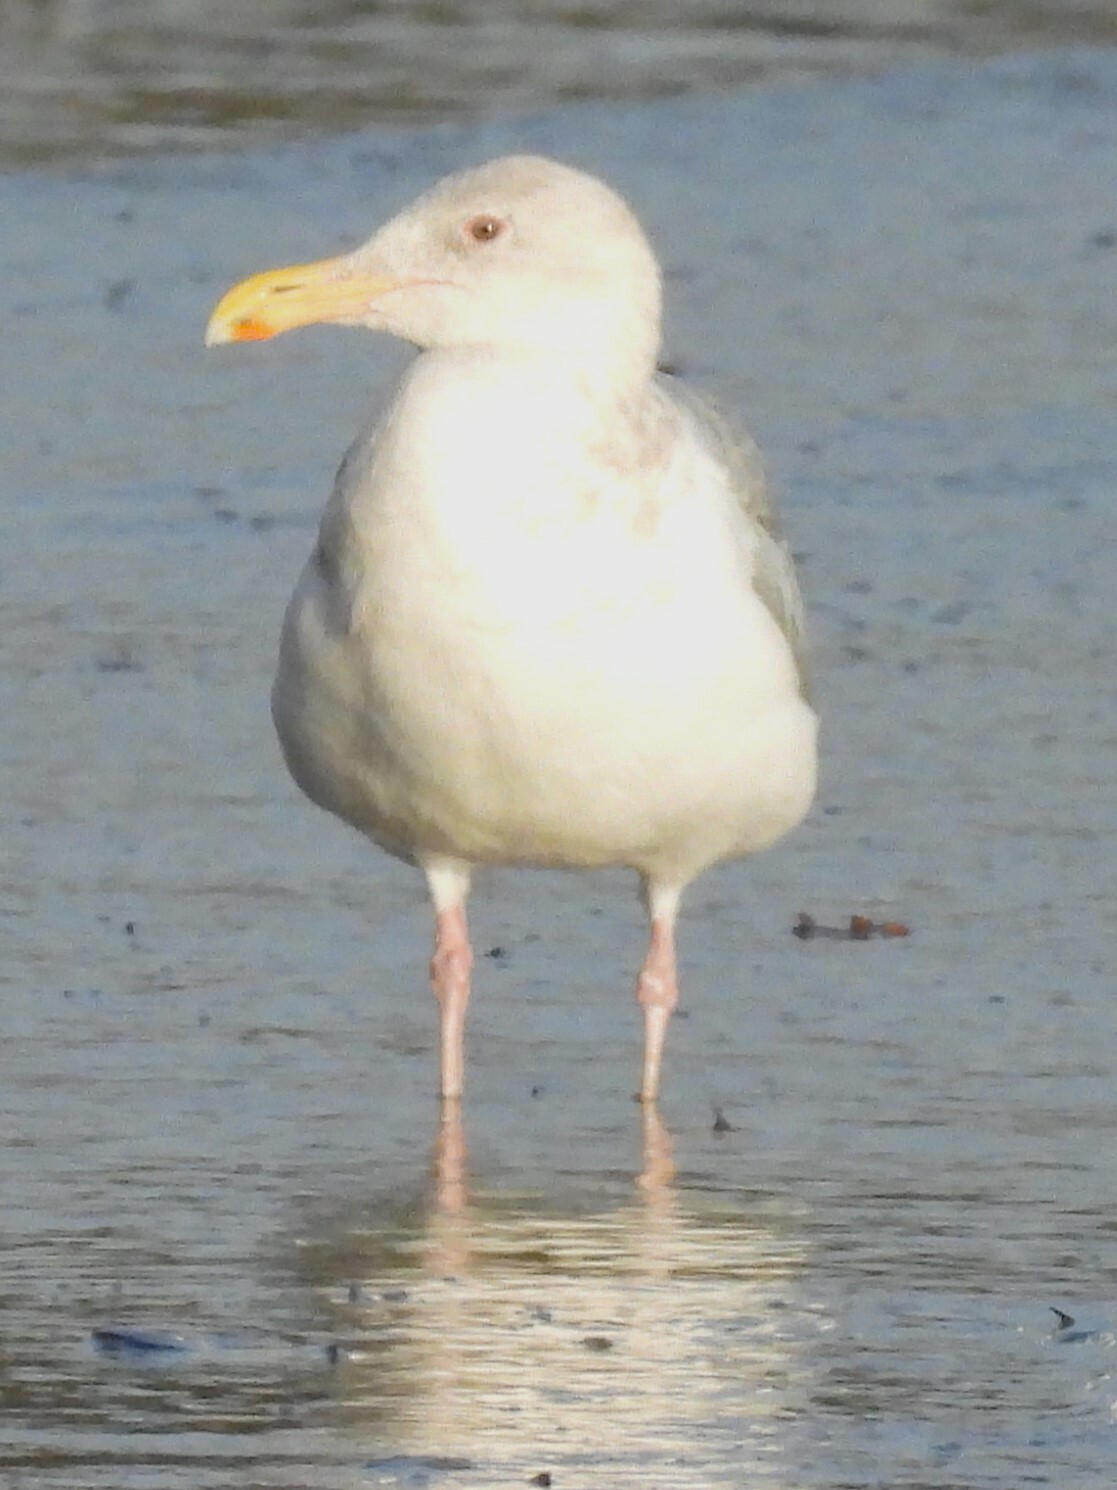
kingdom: Animalia
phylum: Chordata
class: Aves
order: Charadriiformes
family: Laridae
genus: Larus
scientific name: Larus
